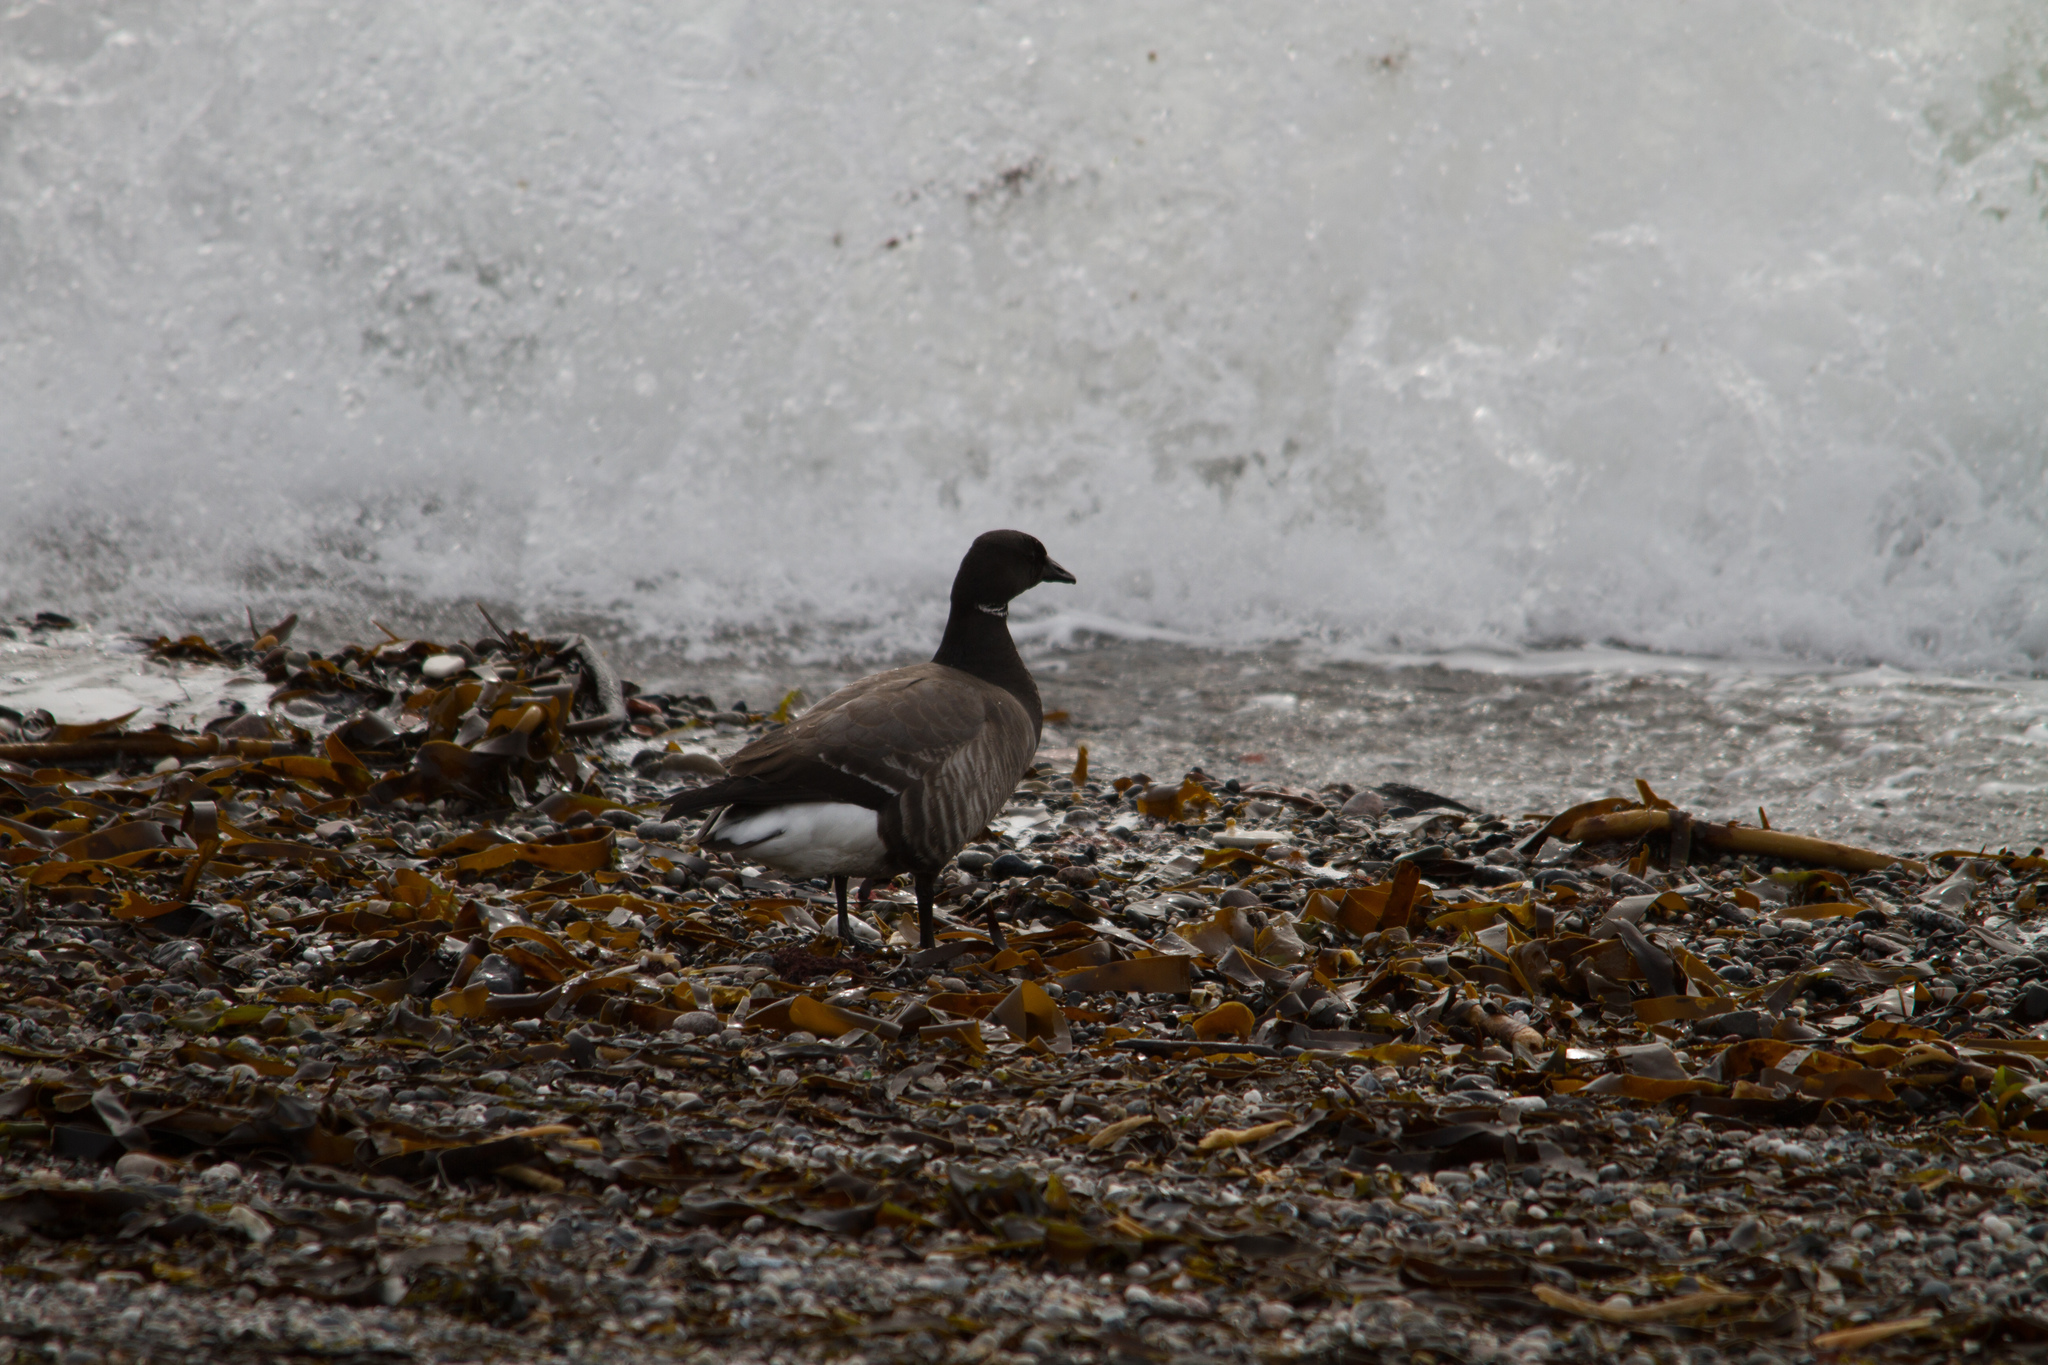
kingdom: Animalia
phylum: Chordata
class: Aves
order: Anseriformes
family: Anatidae
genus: Branta
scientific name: Branta bernicla
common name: Brant goose
